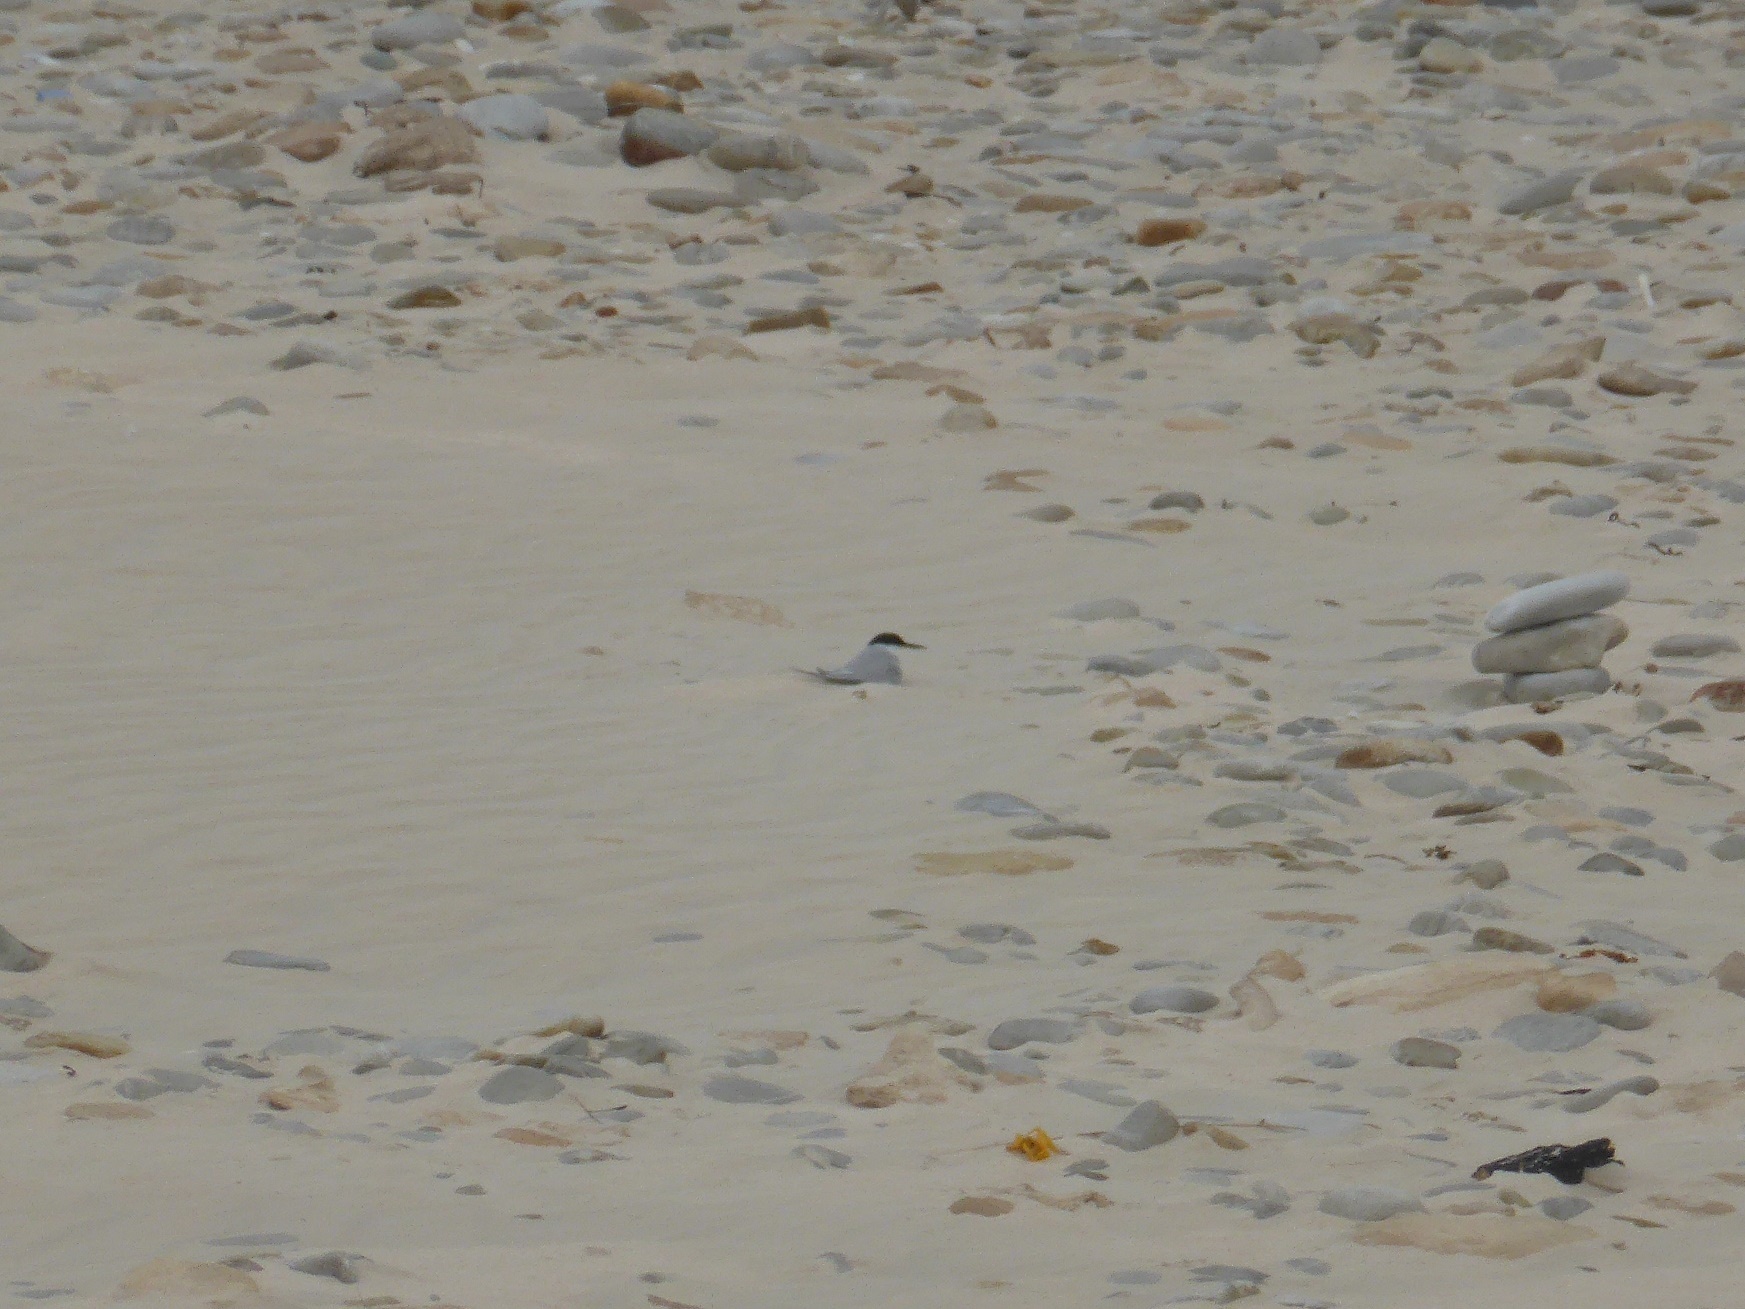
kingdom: Animalia
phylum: Chordata
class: Aves
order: Charadriiformes
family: Laridae
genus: Sternula
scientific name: Sternula balaenarum
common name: Damara tern
